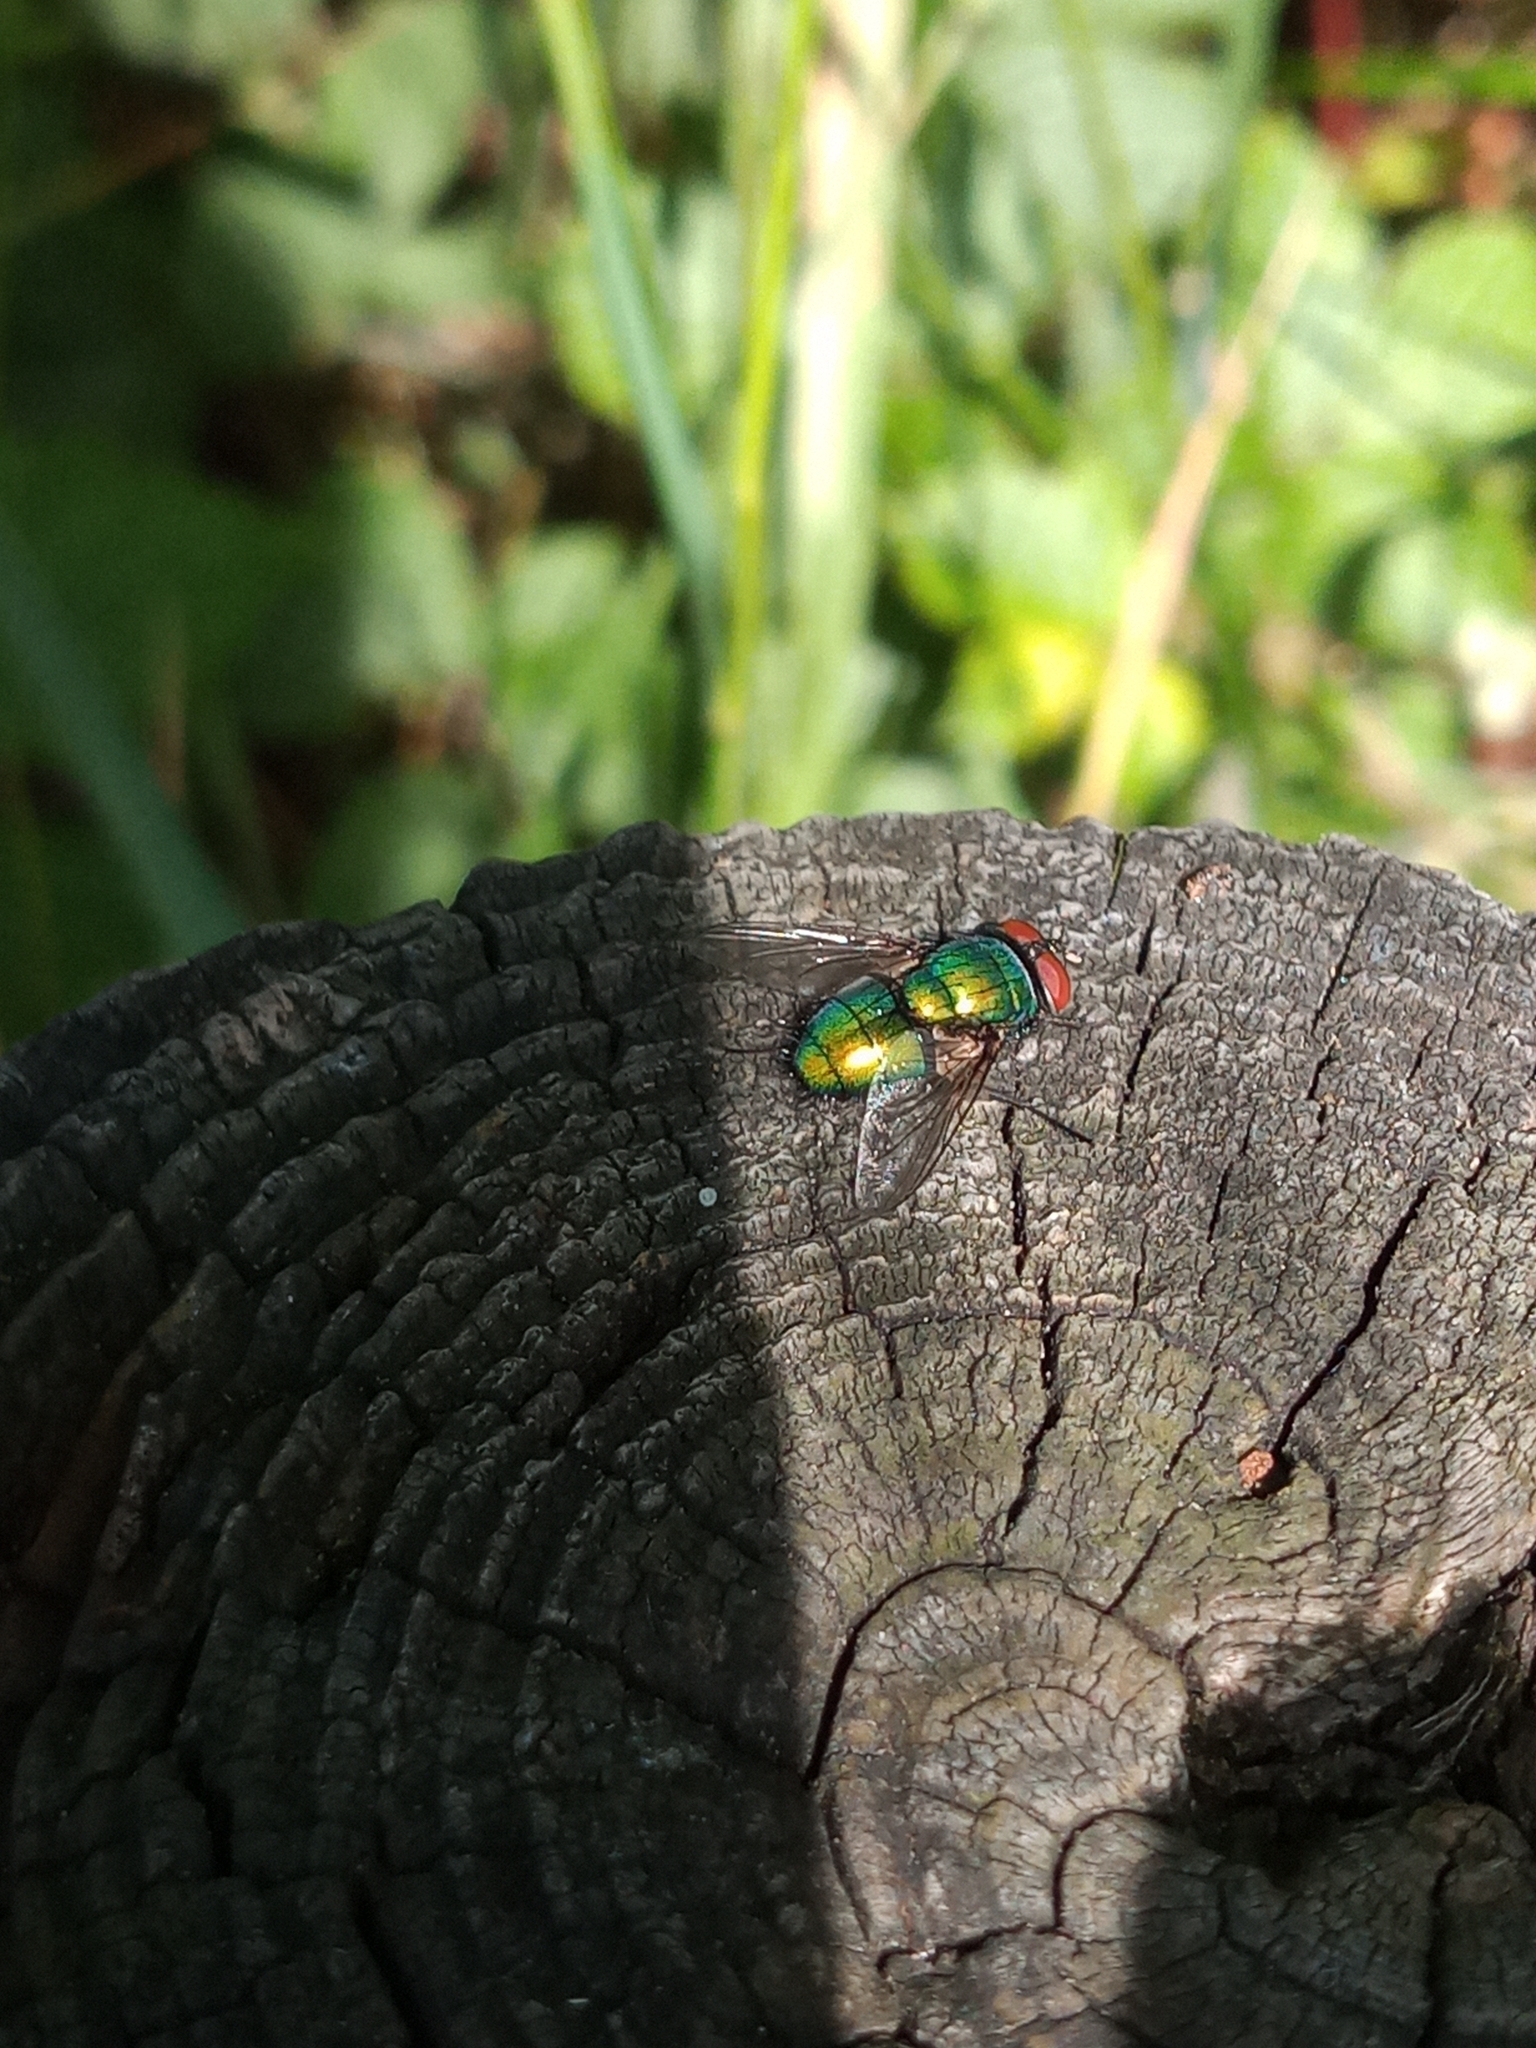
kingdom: Animalia
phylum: Arthropoda
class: Insecta
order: Diptera
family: Calliphoridae
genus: Lucilia
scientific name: Lucilia
